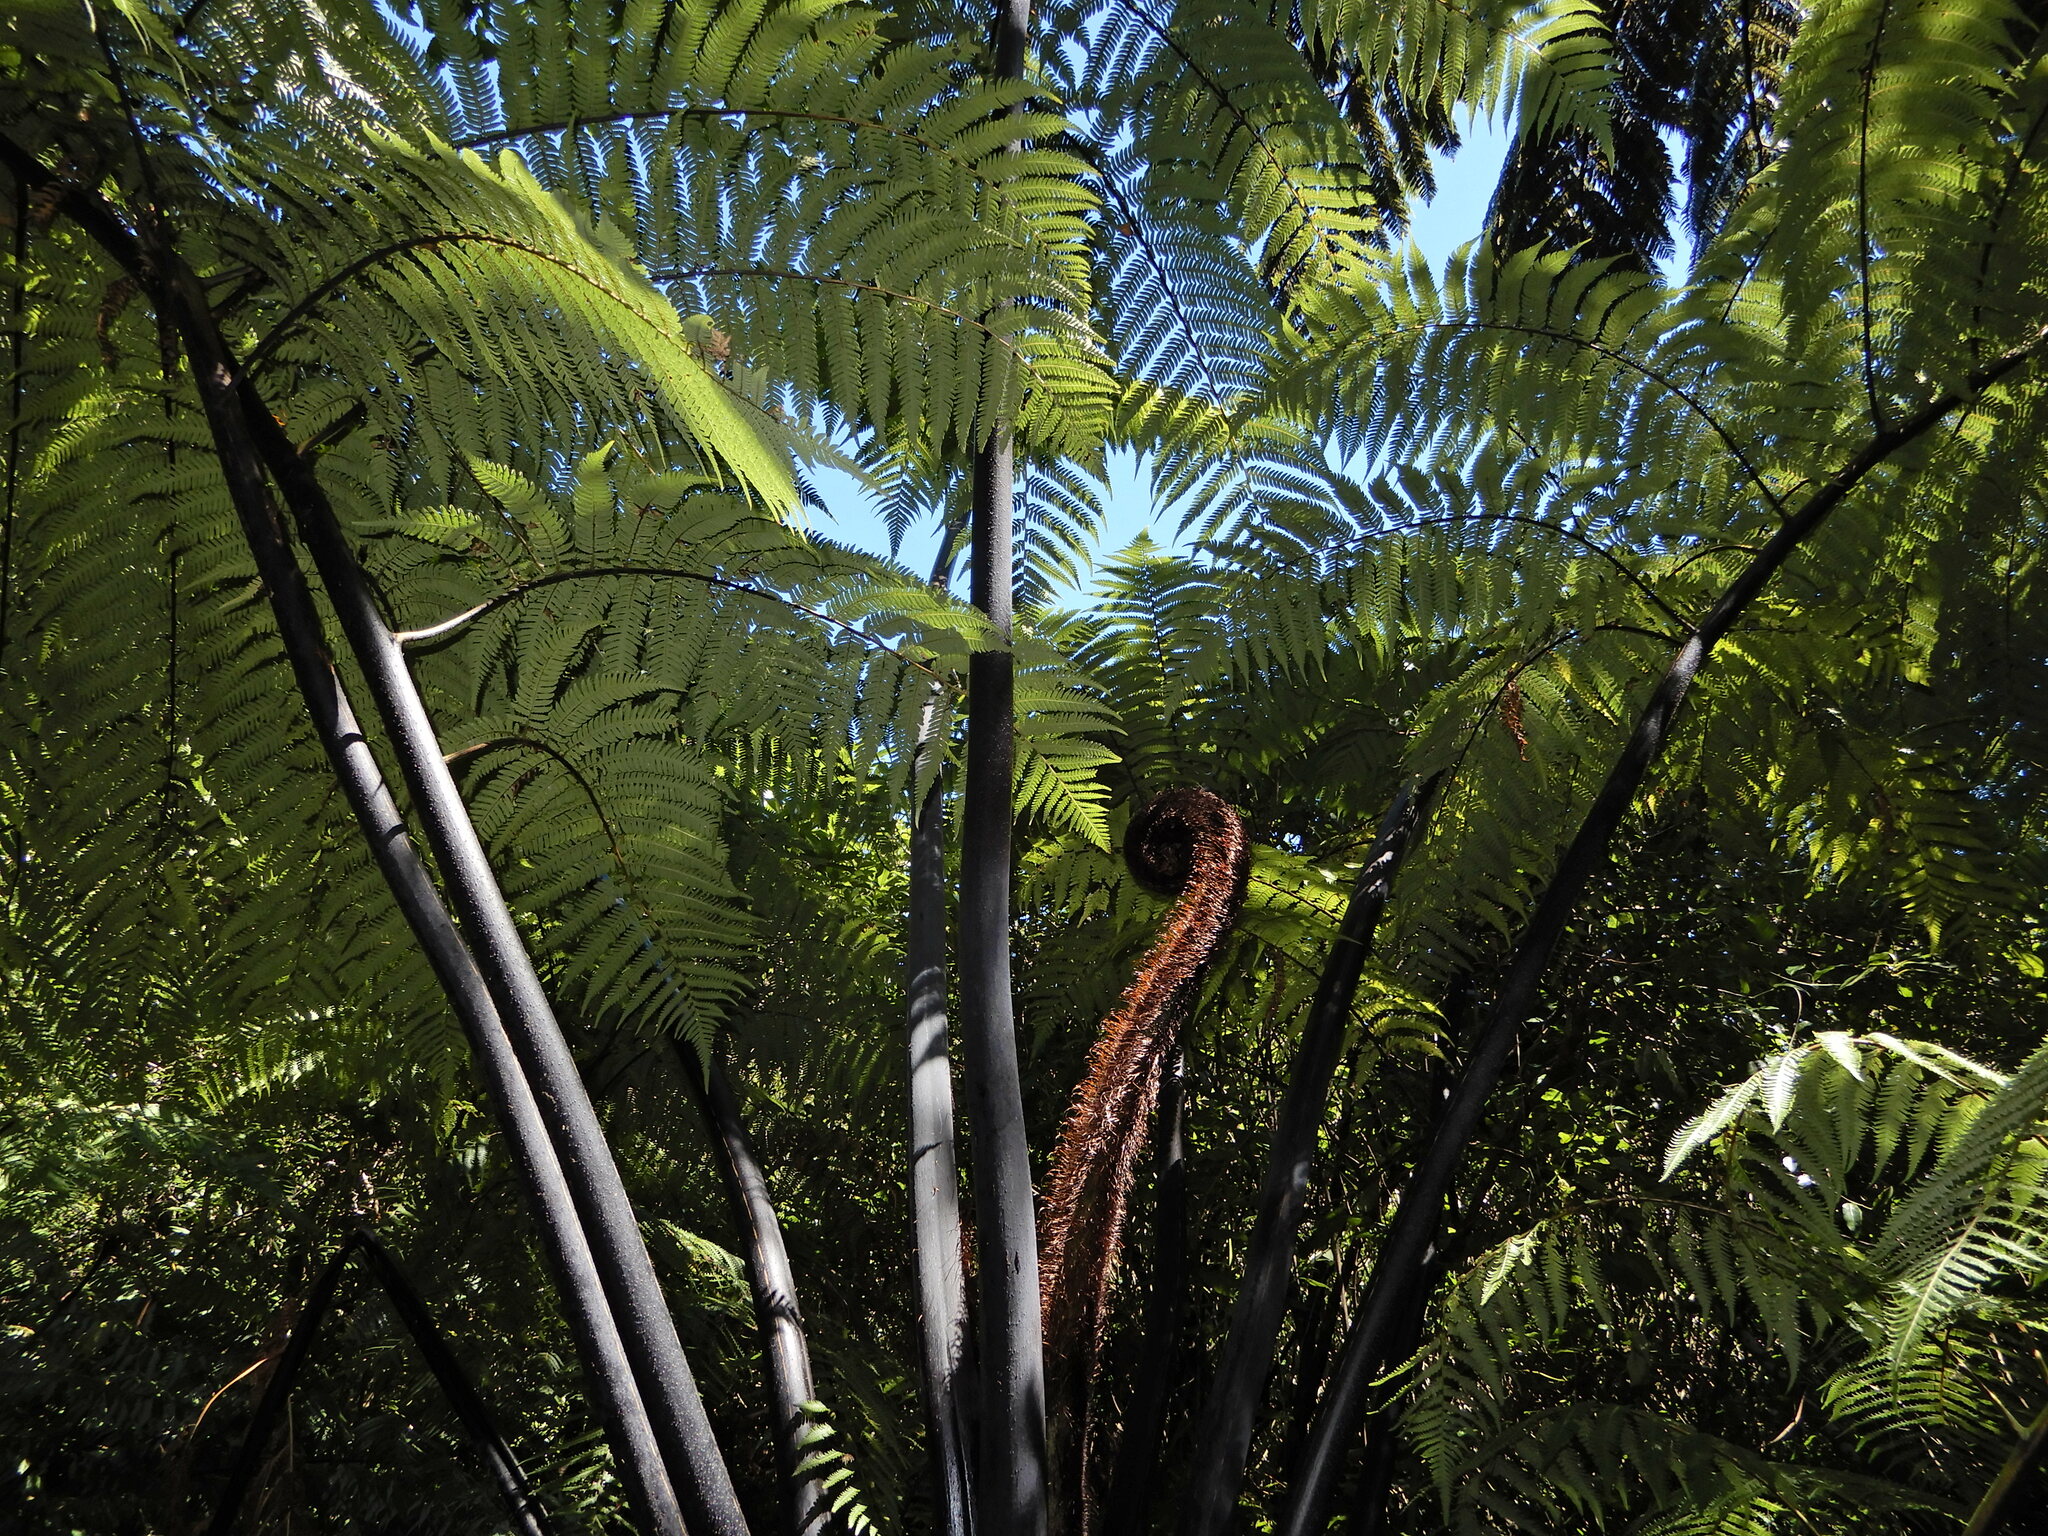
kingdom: Plantae
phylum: Tracheophyta
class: Polypodiopsida
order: Cyatheales
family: Cyatheaceae
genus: Sphaeropteris
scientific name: Sphaeropteris medullaris
